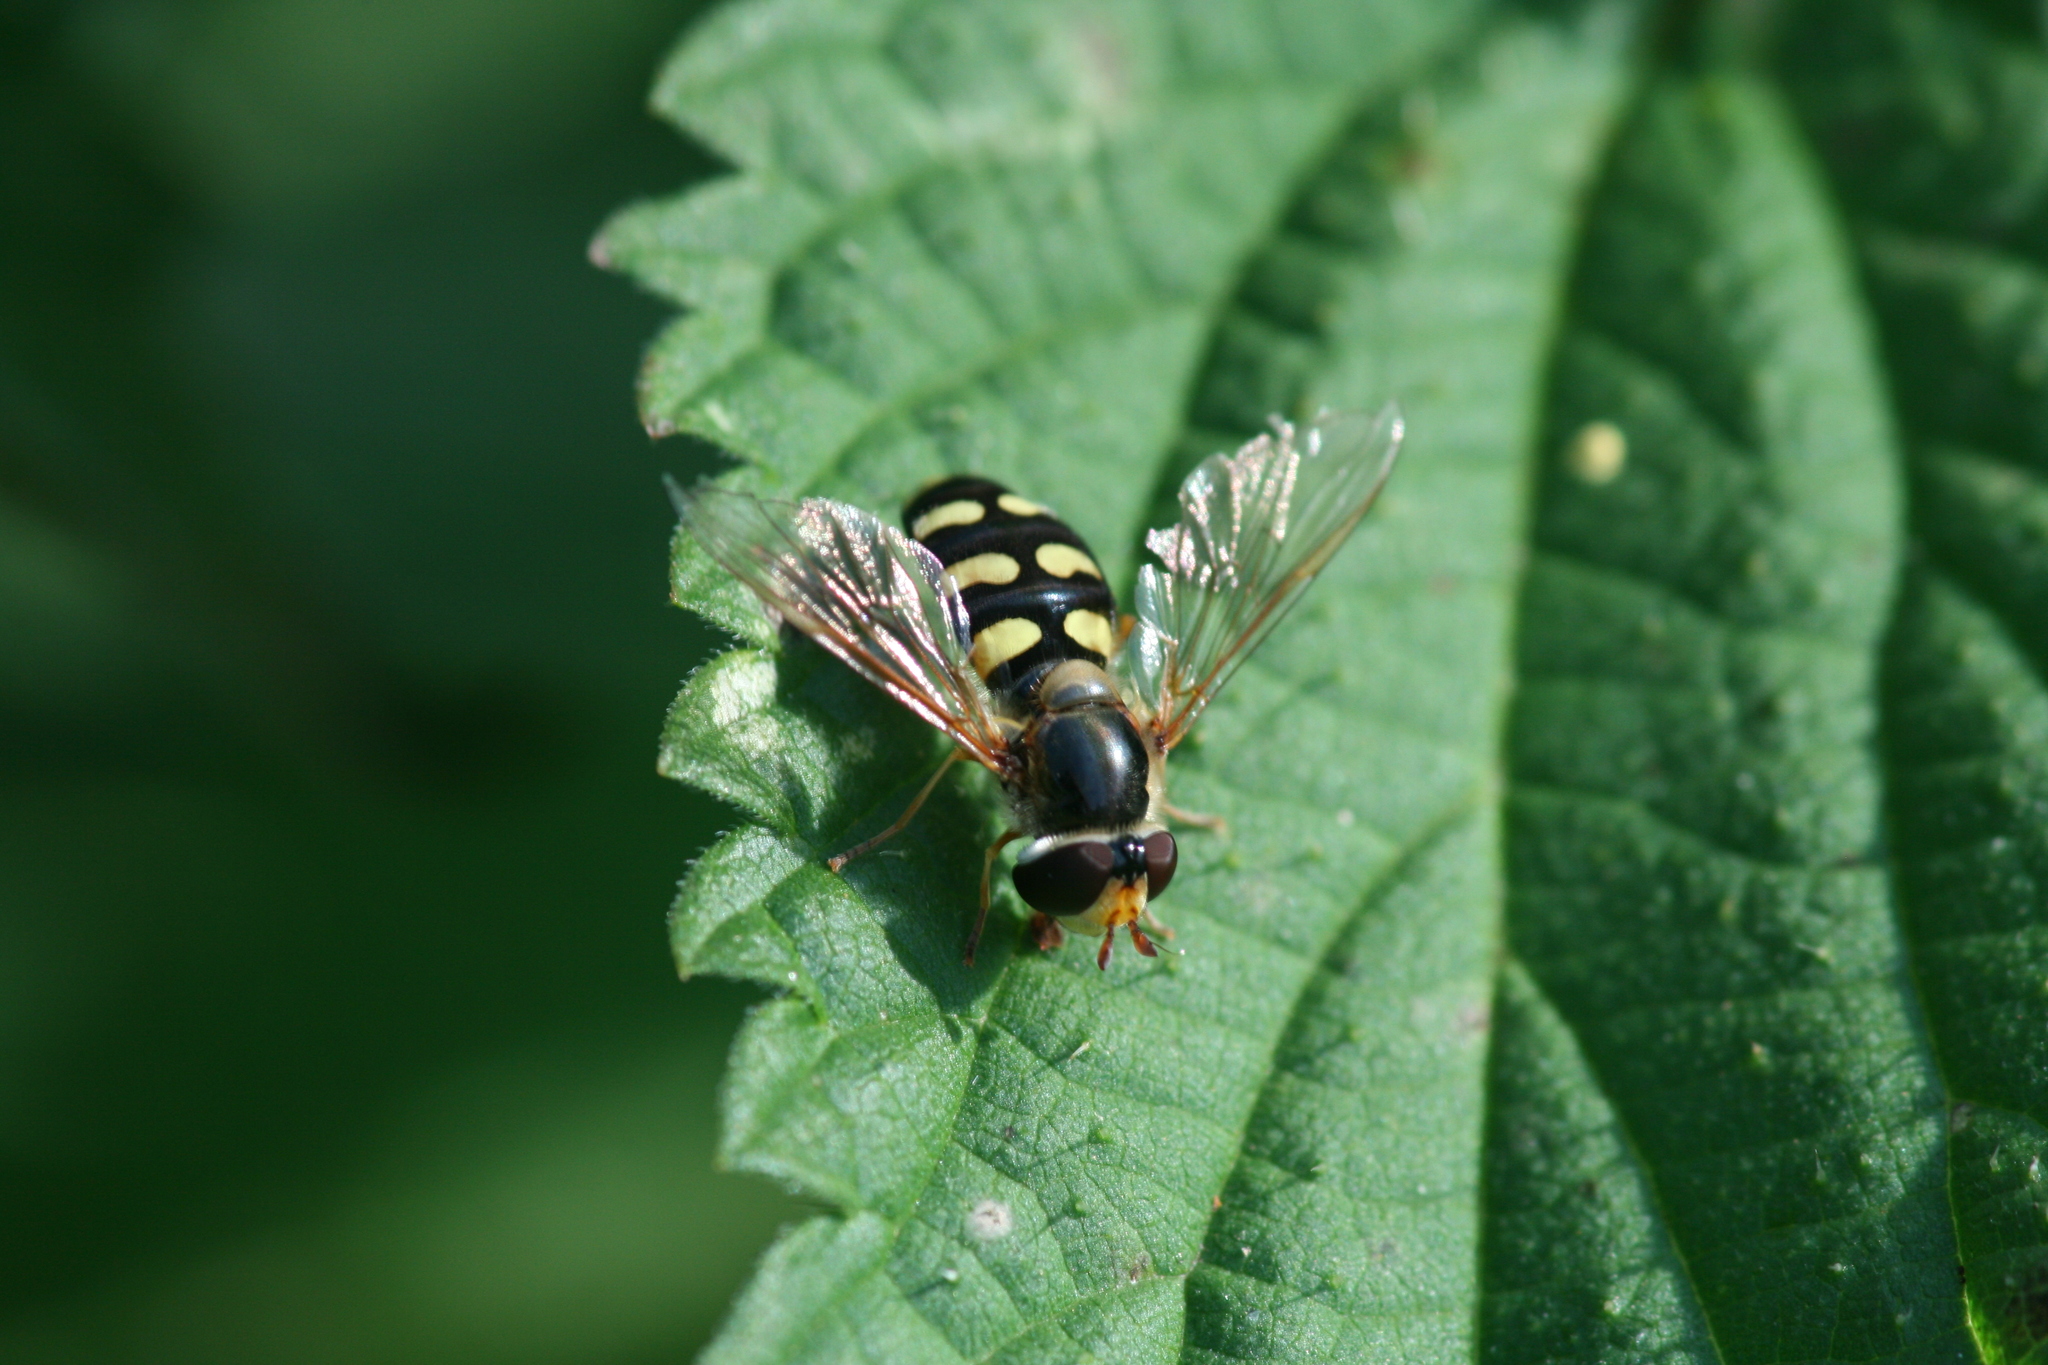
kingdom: Animalia
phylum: Arthropoda
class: Insecta
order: Diptera
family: Syrphidae
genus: Eupeodes
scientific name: Eupeodes luniger
